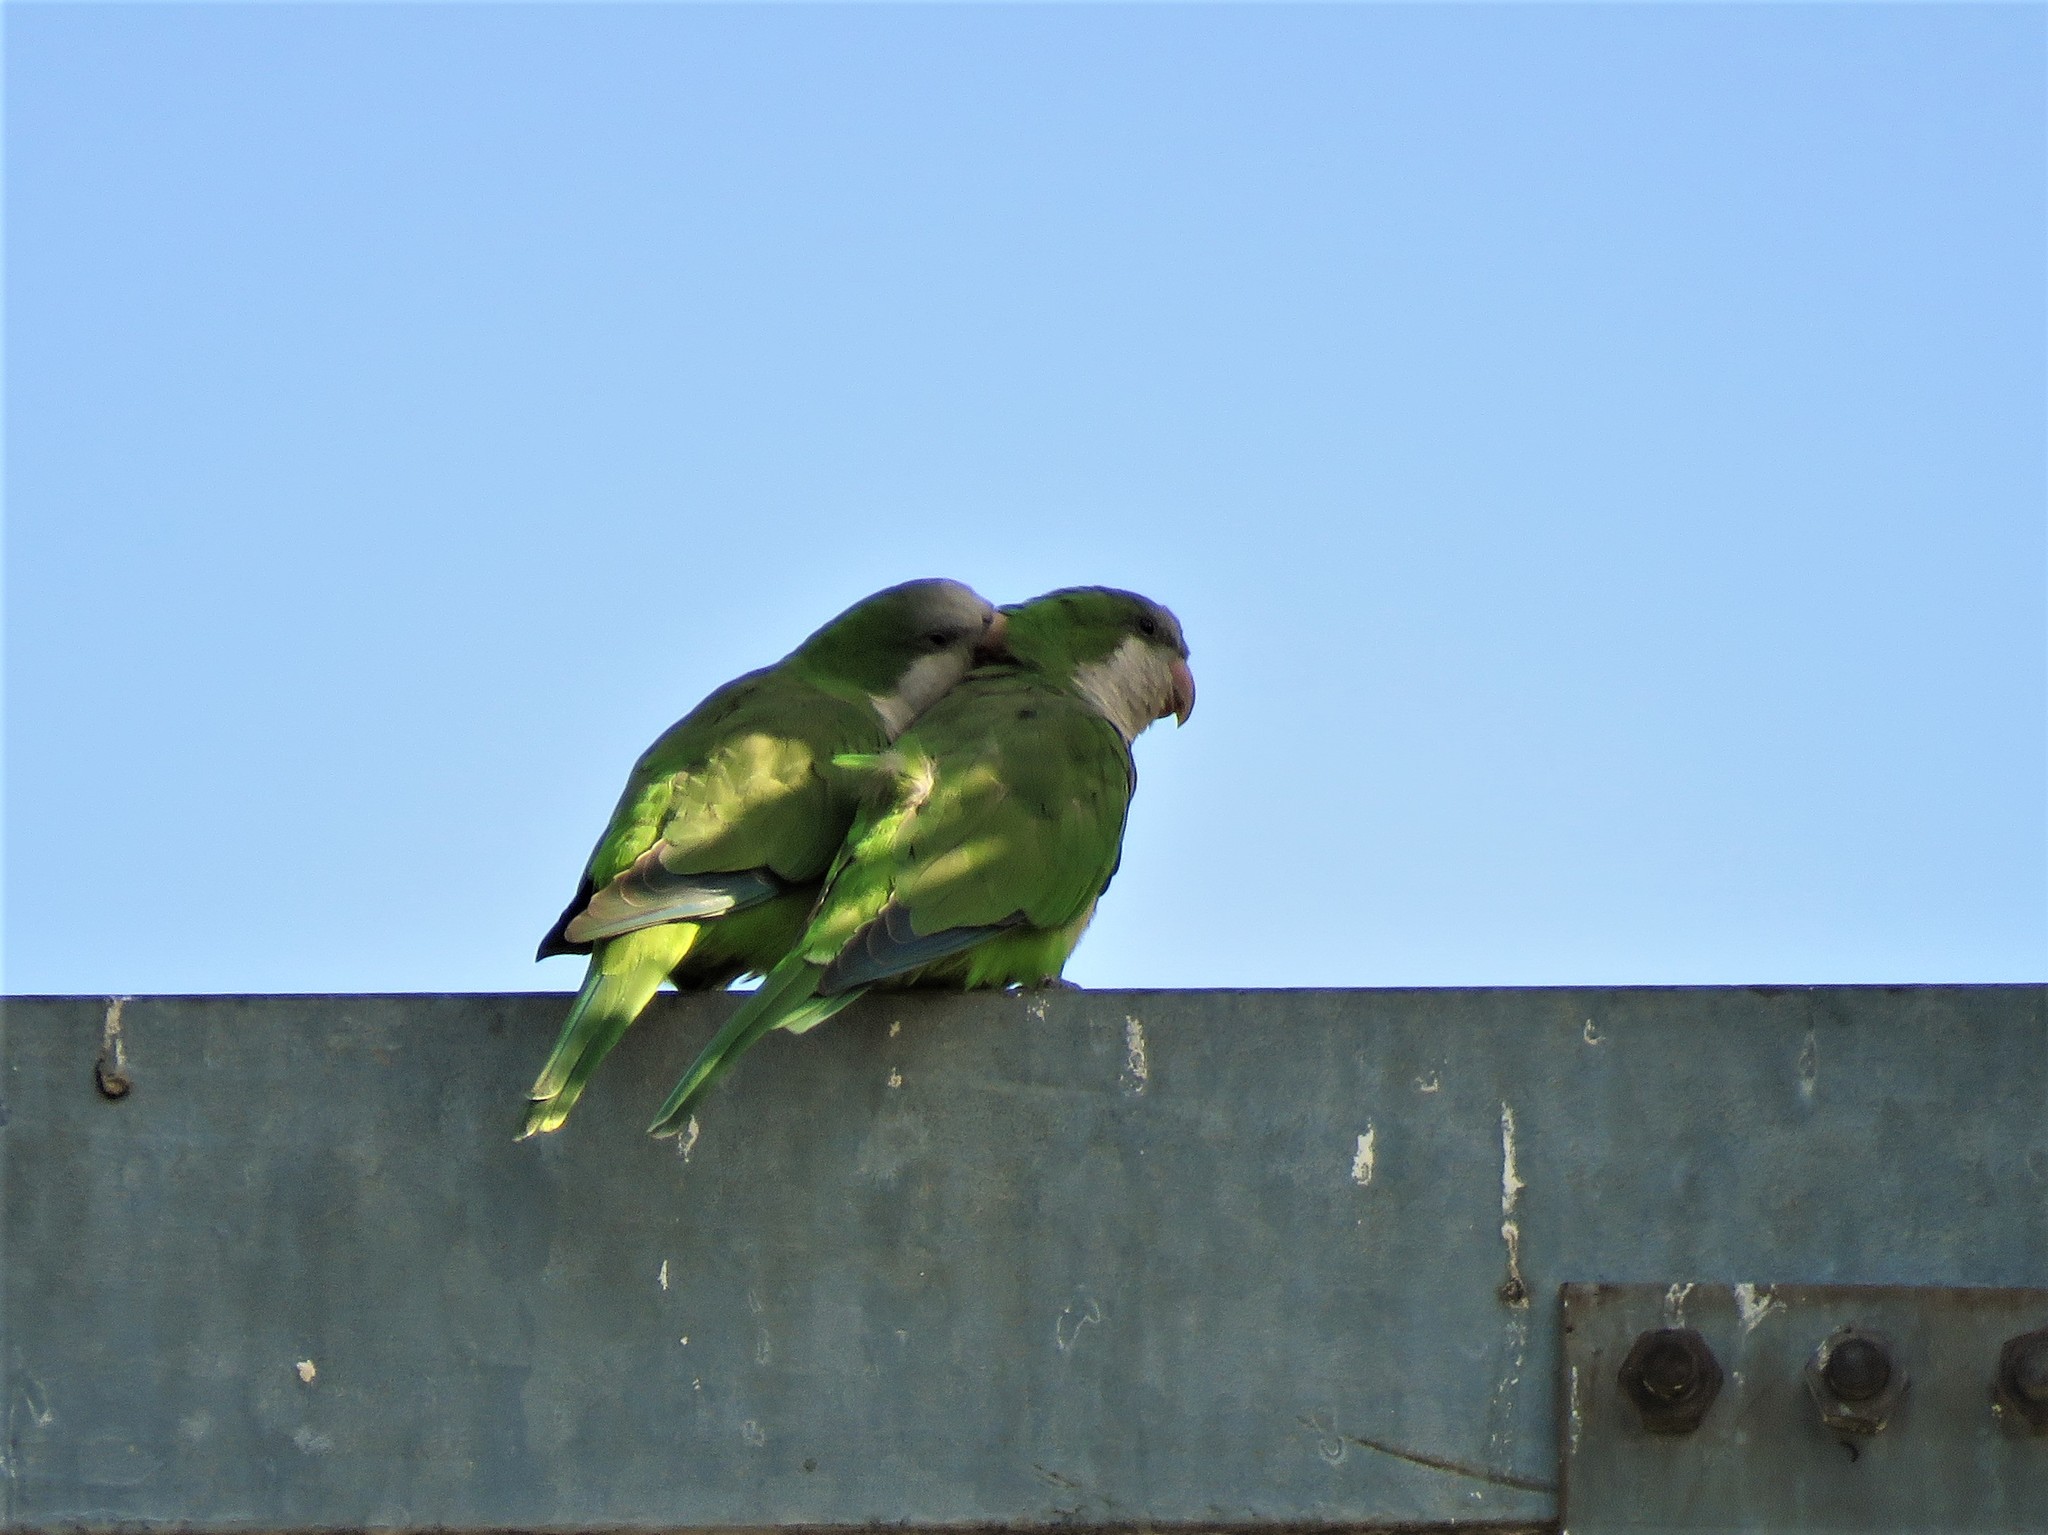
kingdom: Animalia
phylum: Chordata
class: Aves
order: Psittaciformes
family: Psittacidae
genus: Myiopsitta
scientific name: Myiopsitta monachus
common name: Monk parakeet
